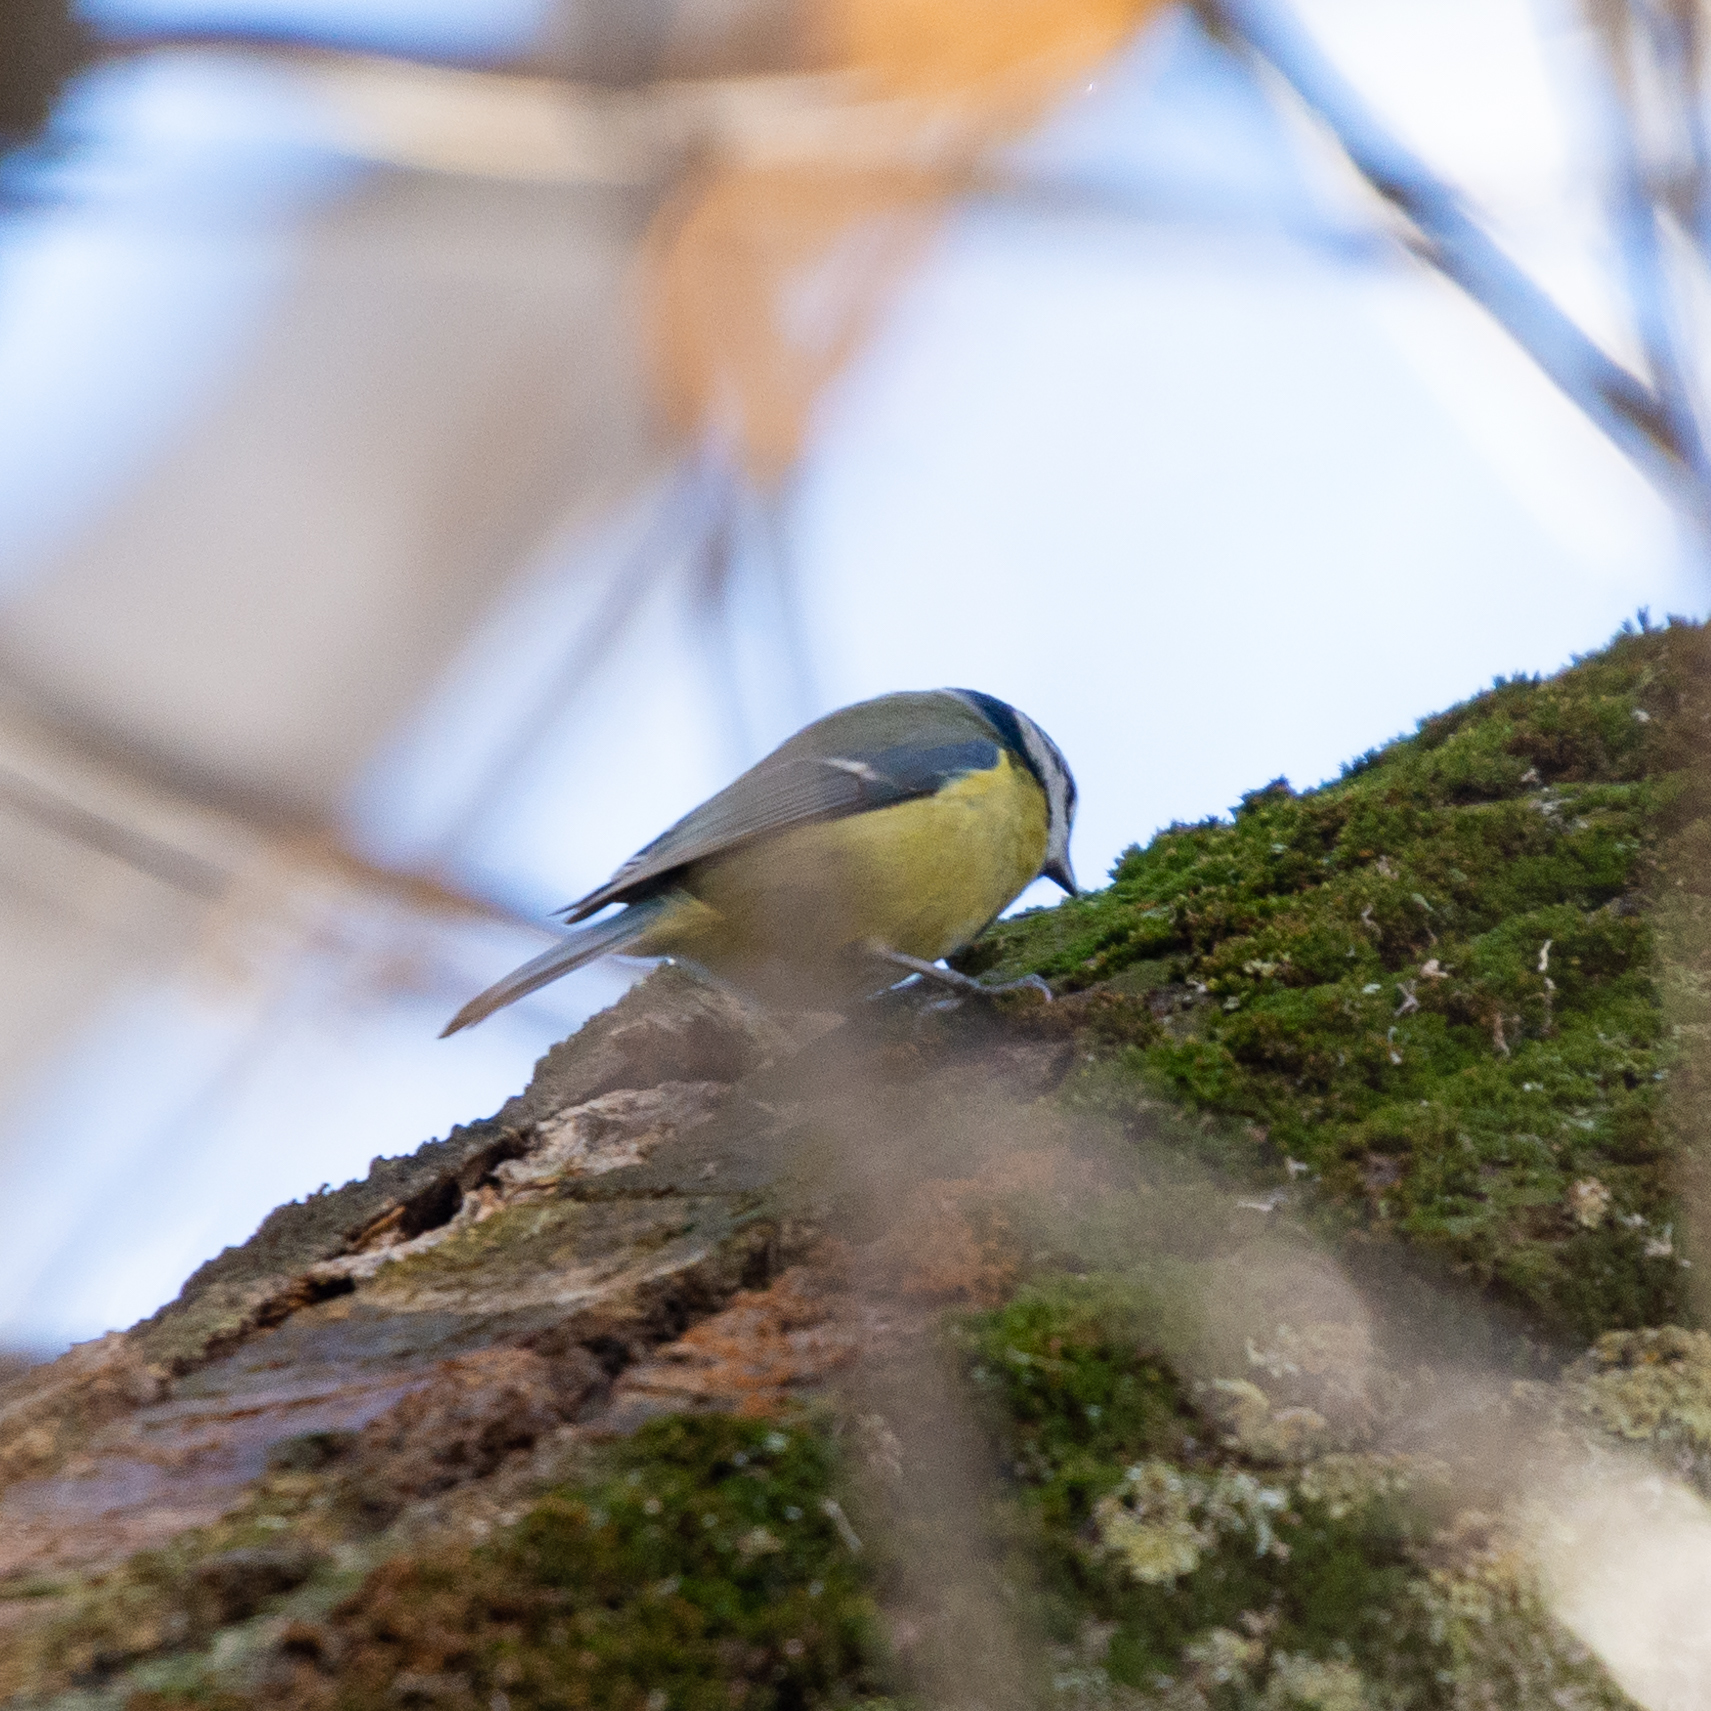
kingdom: Animalia
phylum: Chordata
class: Aves
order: Passeriformes
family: Paridae
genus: Cyanistes
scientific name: Cyanistes caeruleus
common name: Eurasian blue tit
